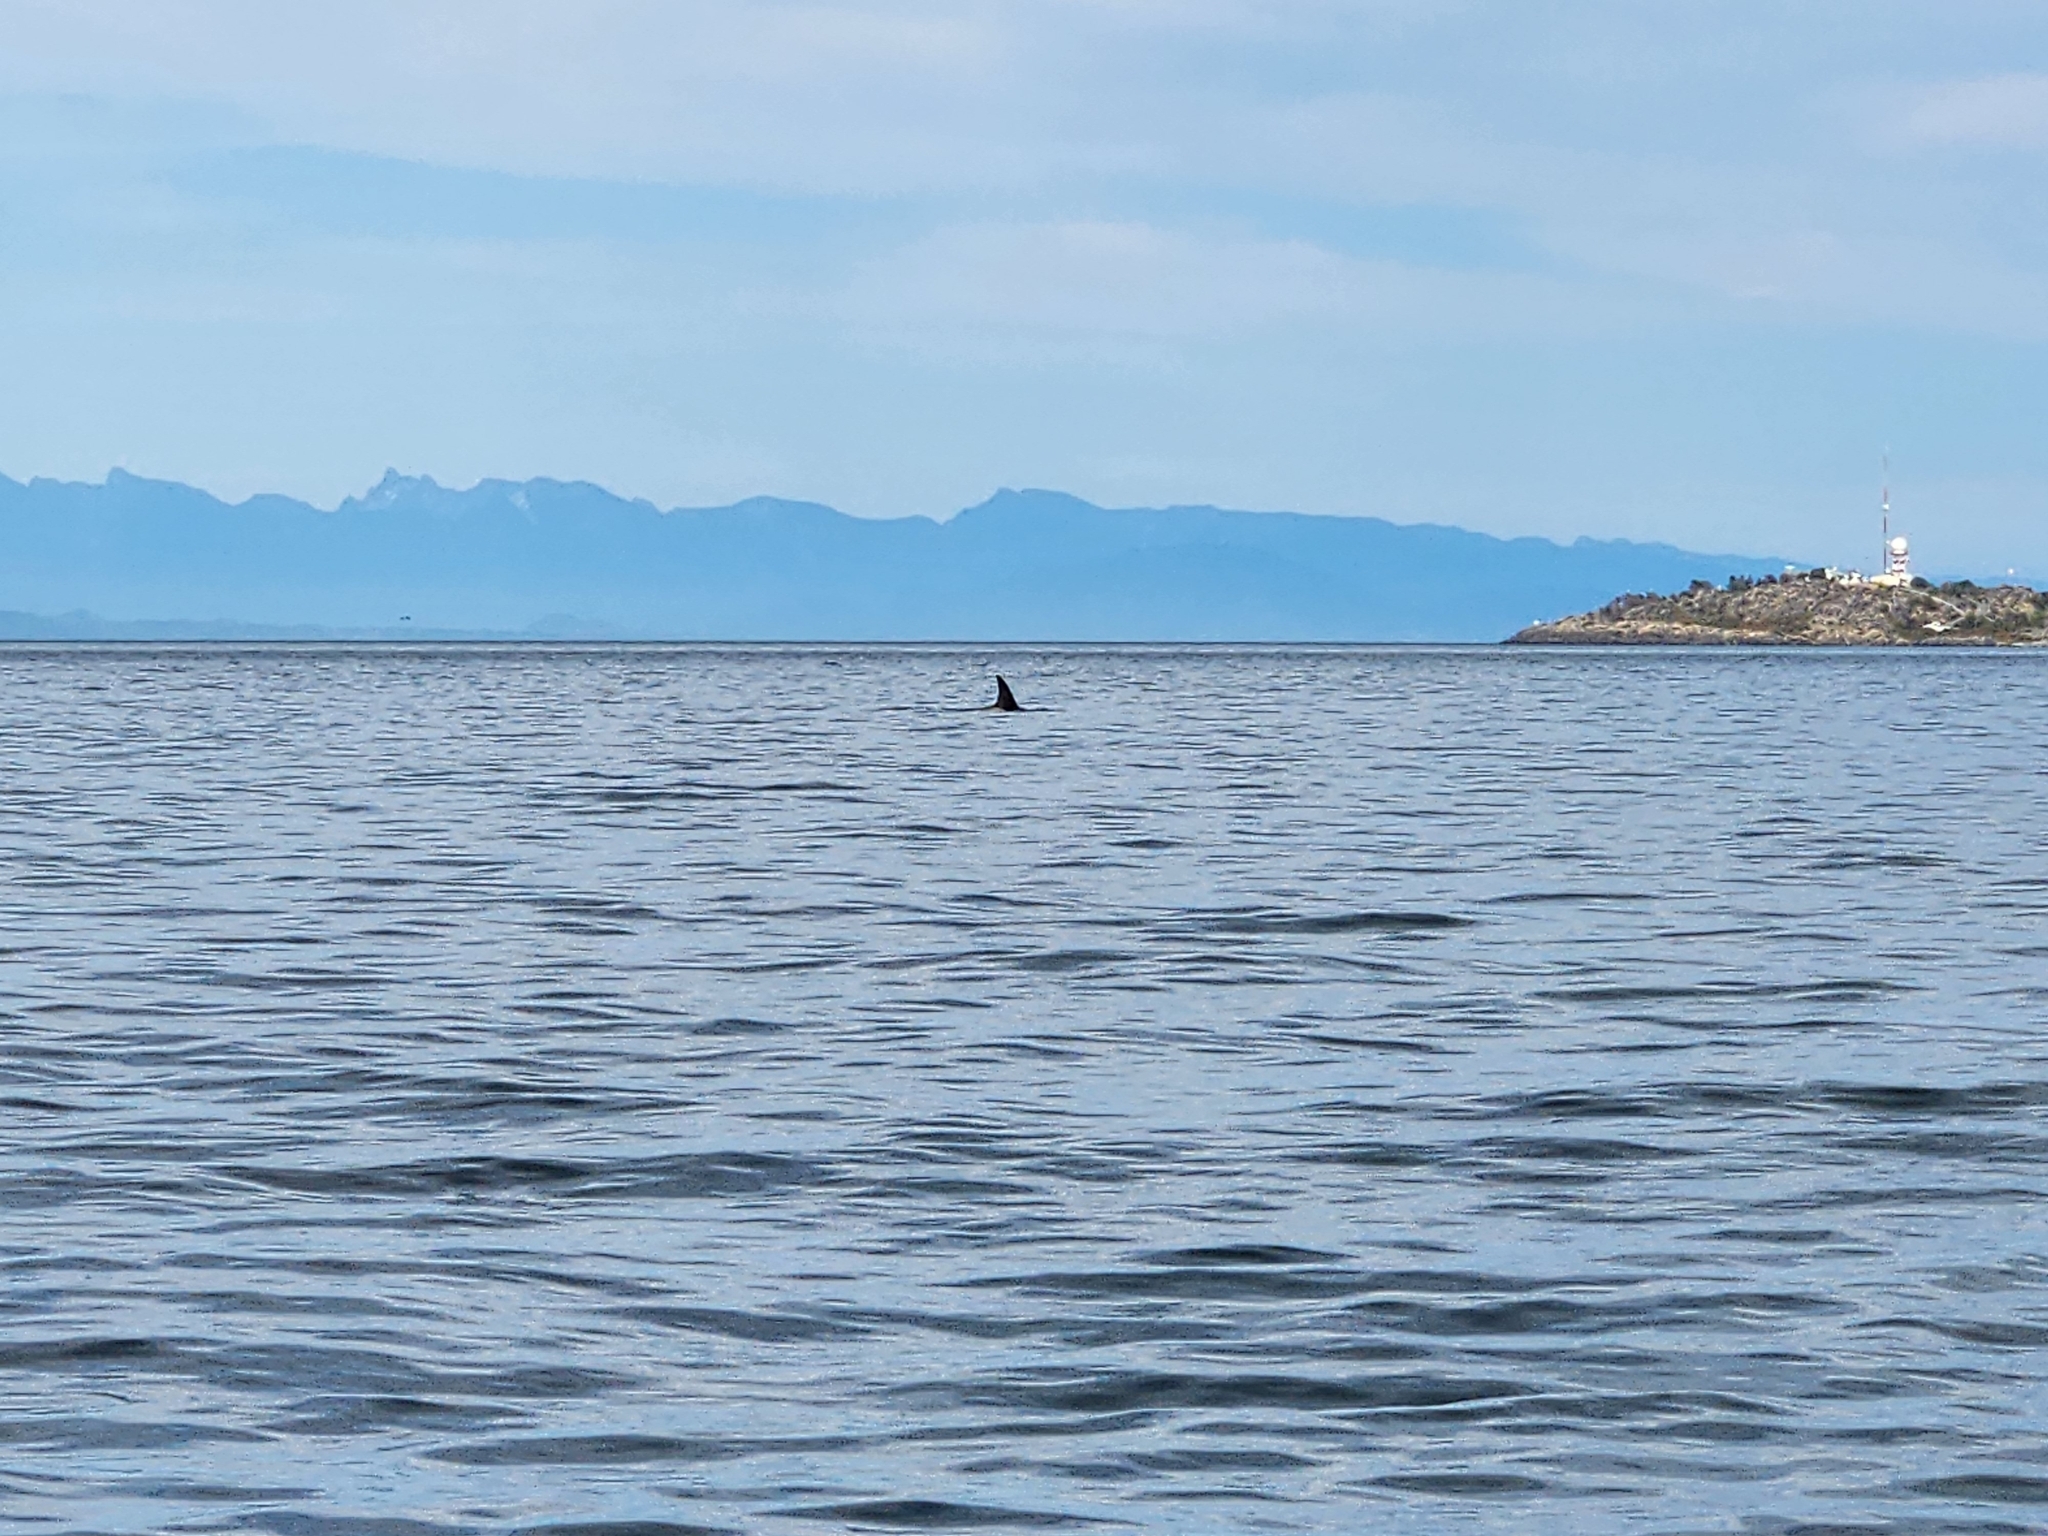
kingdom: Animalia
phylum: Chordata
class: Mammalia
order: Cetacea
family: Delphinidae
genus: Orcinus
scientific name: Orcinus orca
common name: Killer whale
